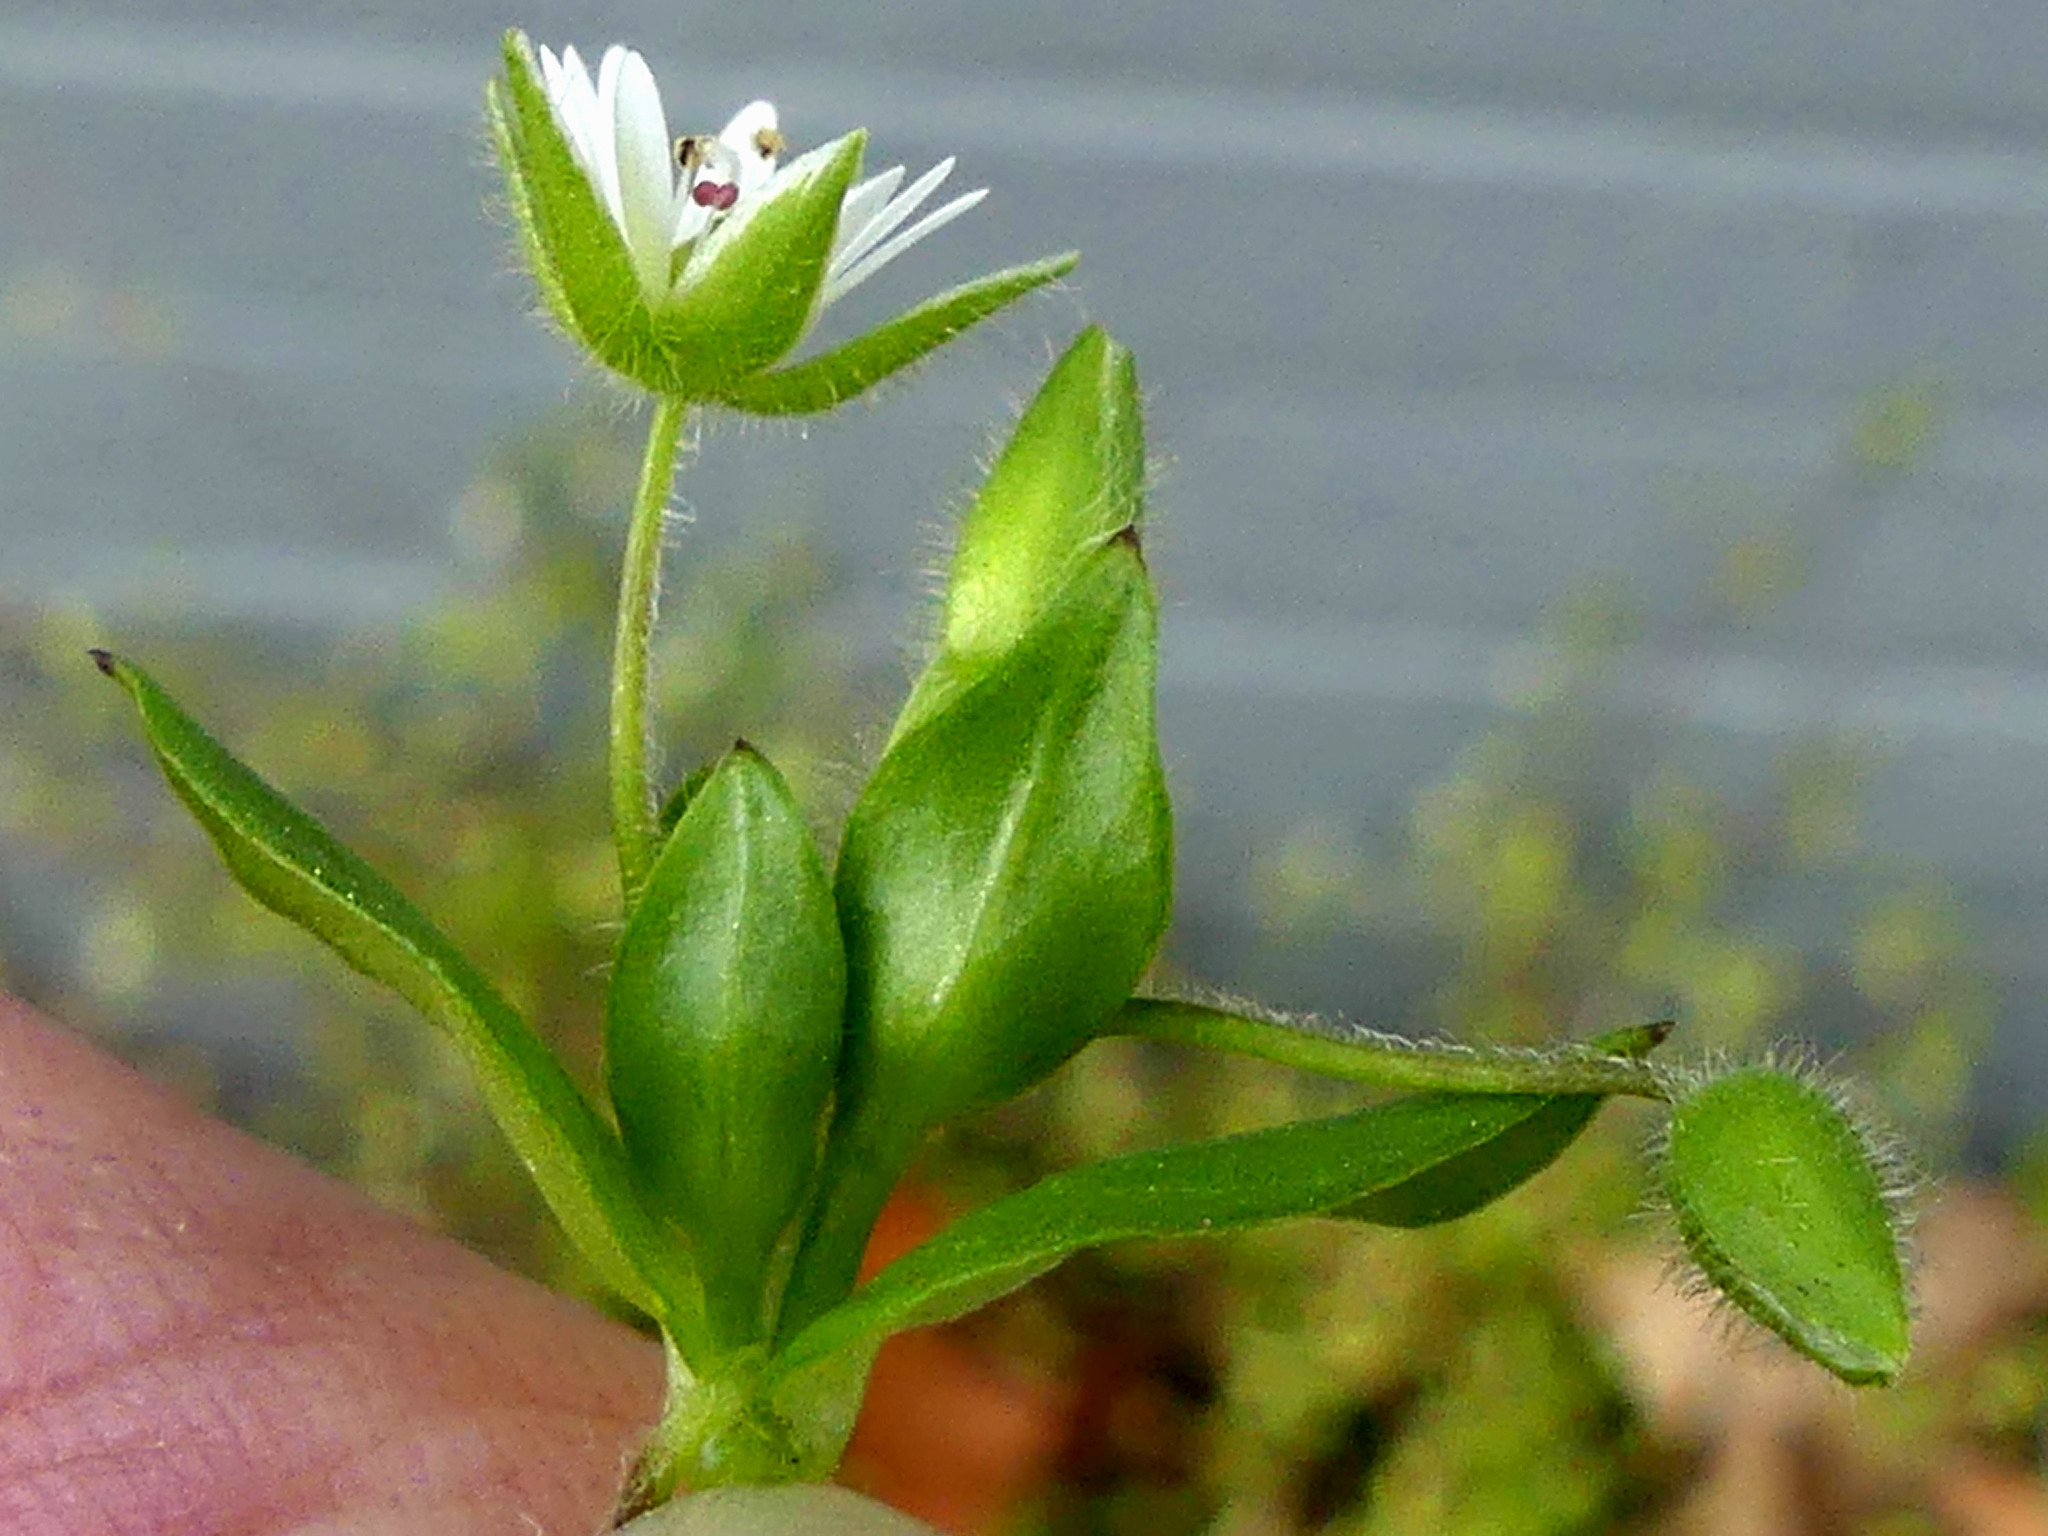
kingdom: Plantae
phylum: Tracheophyta
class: Magnoliopsida
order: Caryophyllales
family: Caryophyllaceae
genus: Stellaria
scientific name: Stellaria media
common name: Common chickweed
